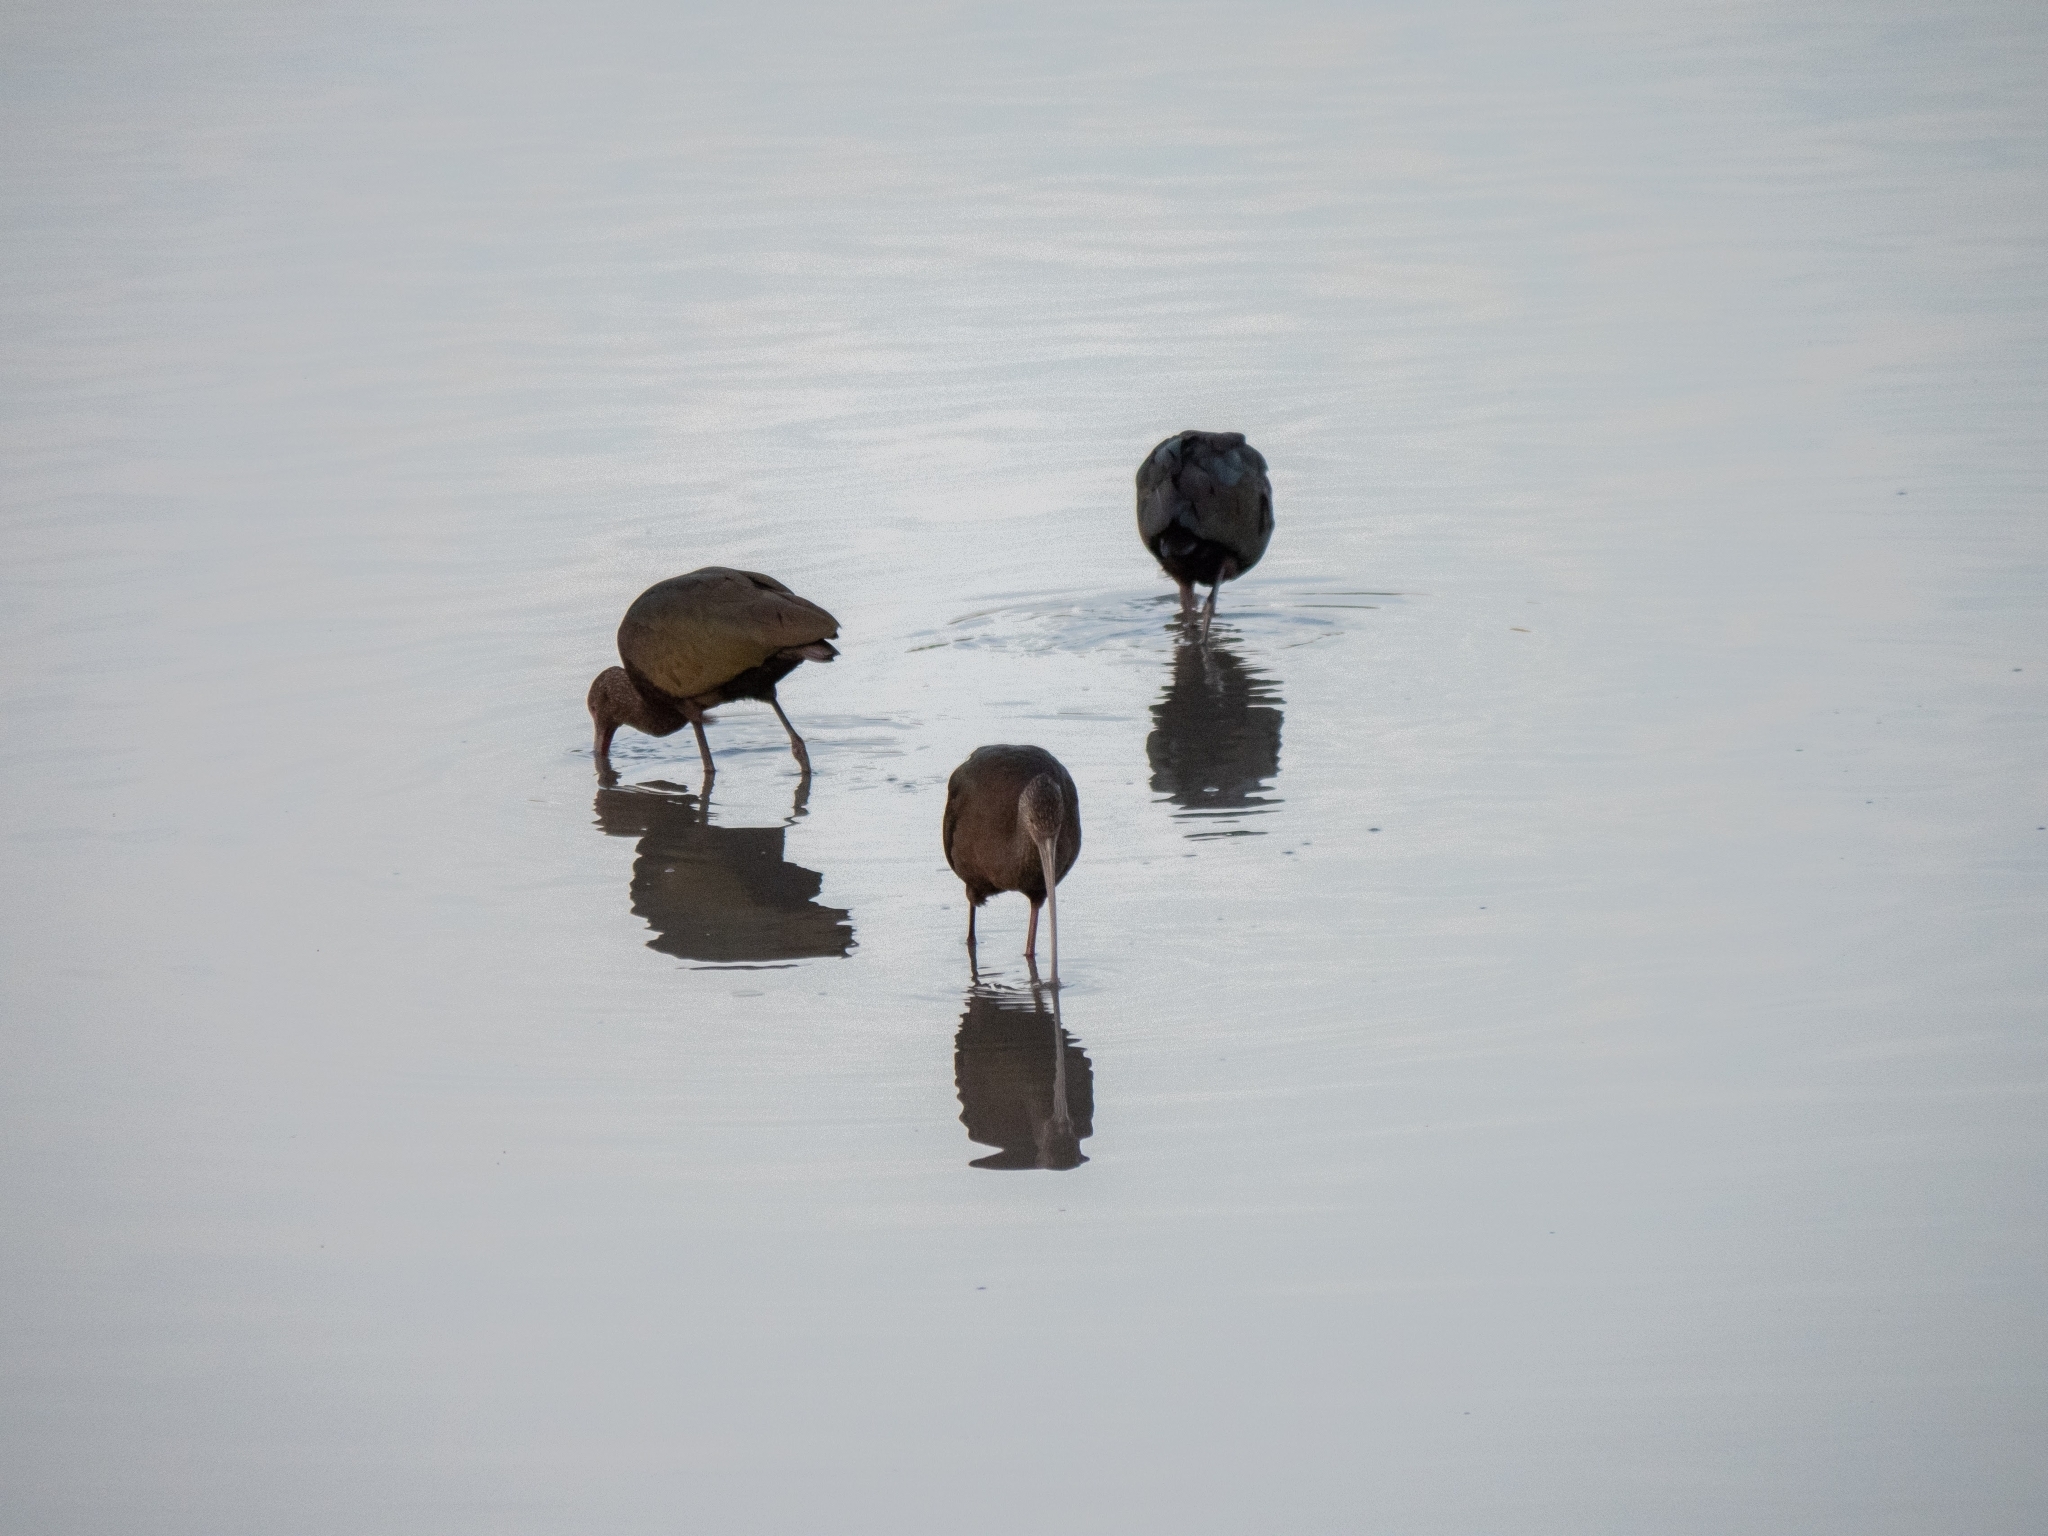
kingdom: Animalia
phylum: Chordata
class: Aves
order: Pelecaniformes
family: Threskiornithidae
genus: Plegadis
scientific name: Plegadis chihi
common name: White-faced ibis
